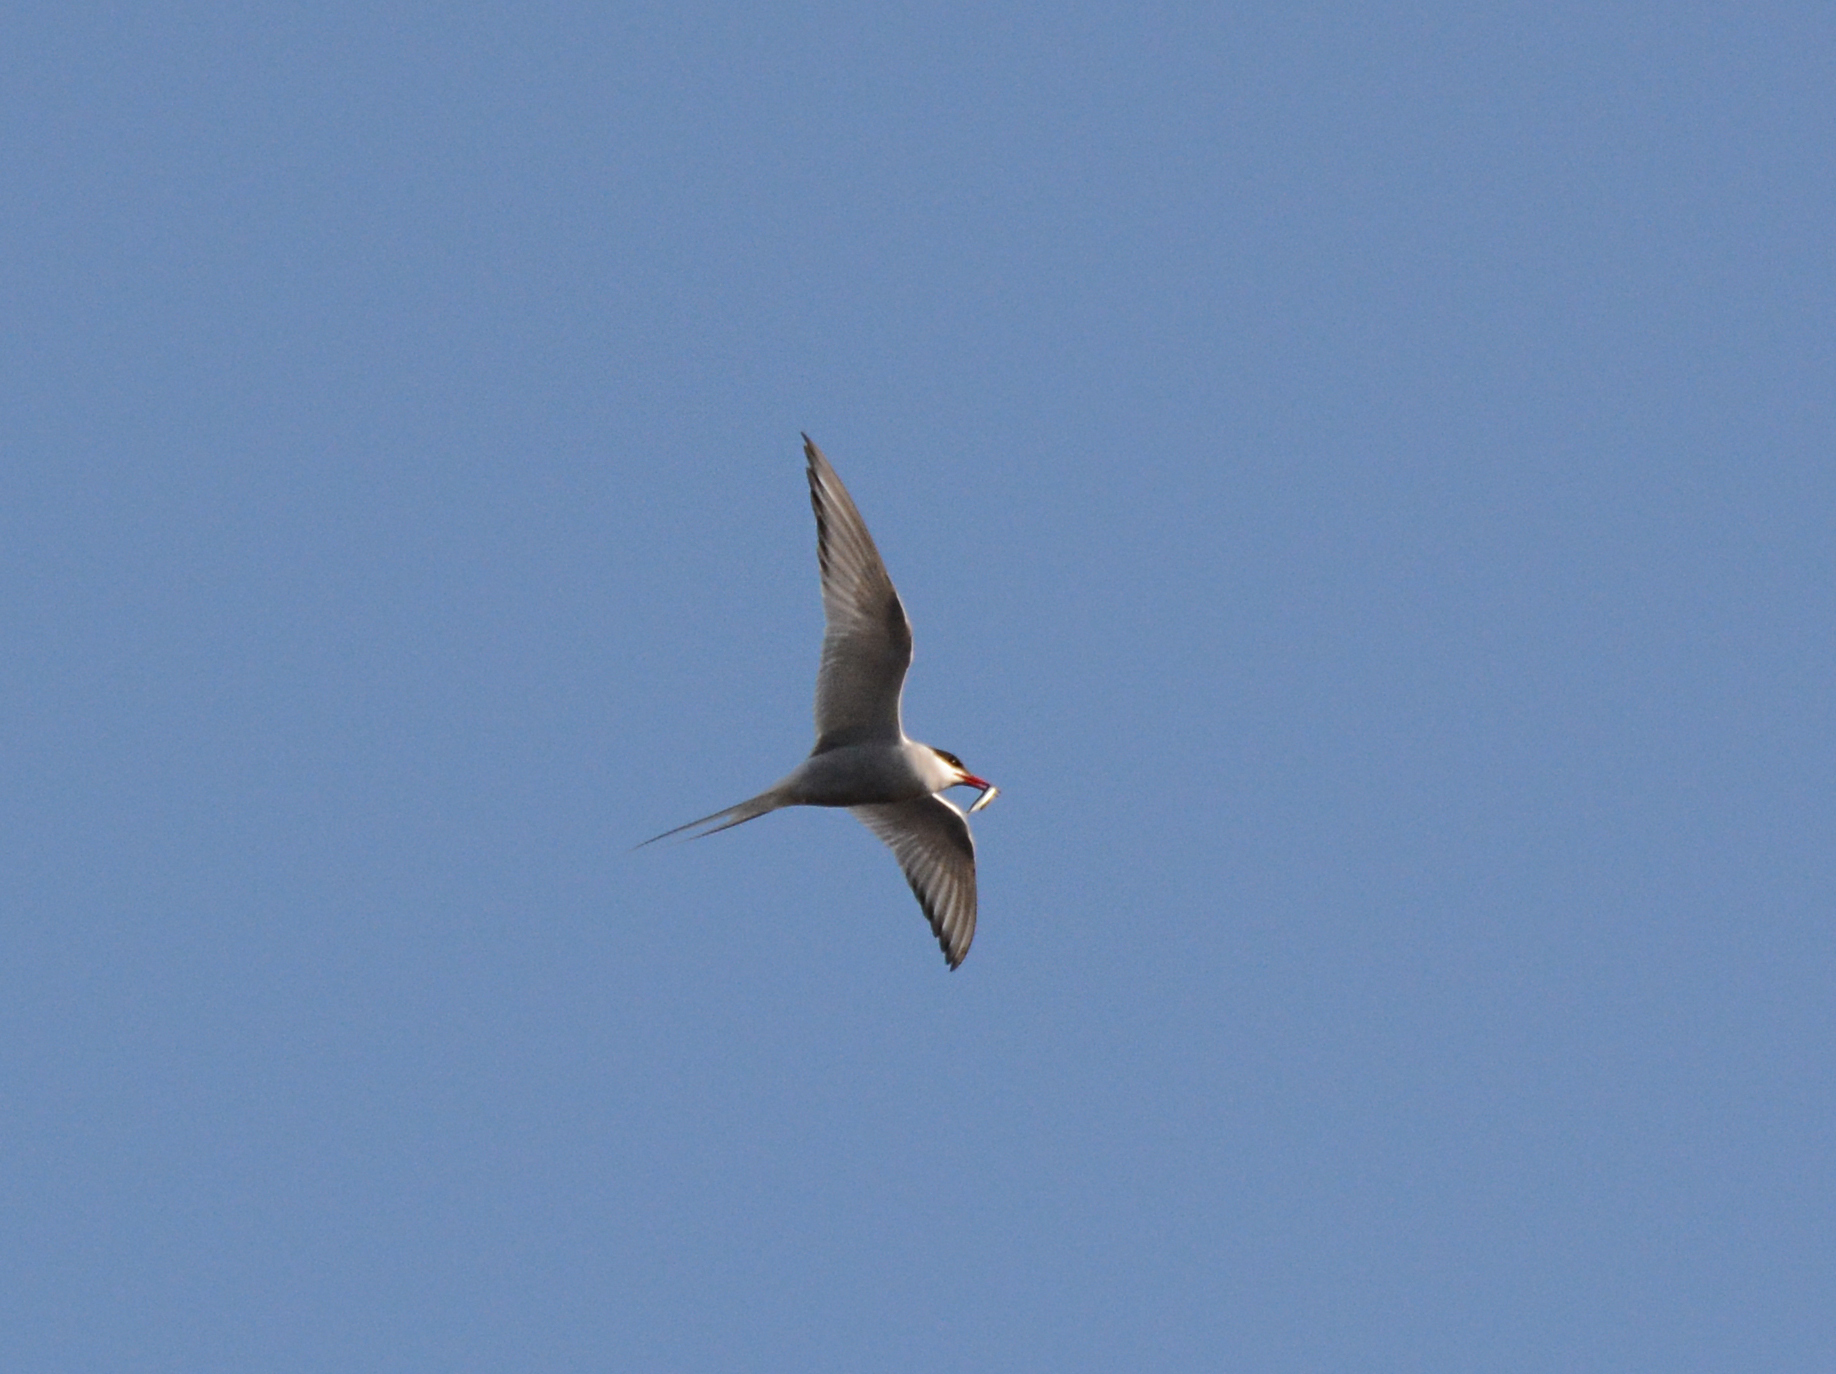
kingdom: Animalia
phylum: Chordata
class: Aves
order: Charadriiformes
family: Laridae
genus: Sterna
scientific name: Sterna paradisaea
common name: Arctic tern
